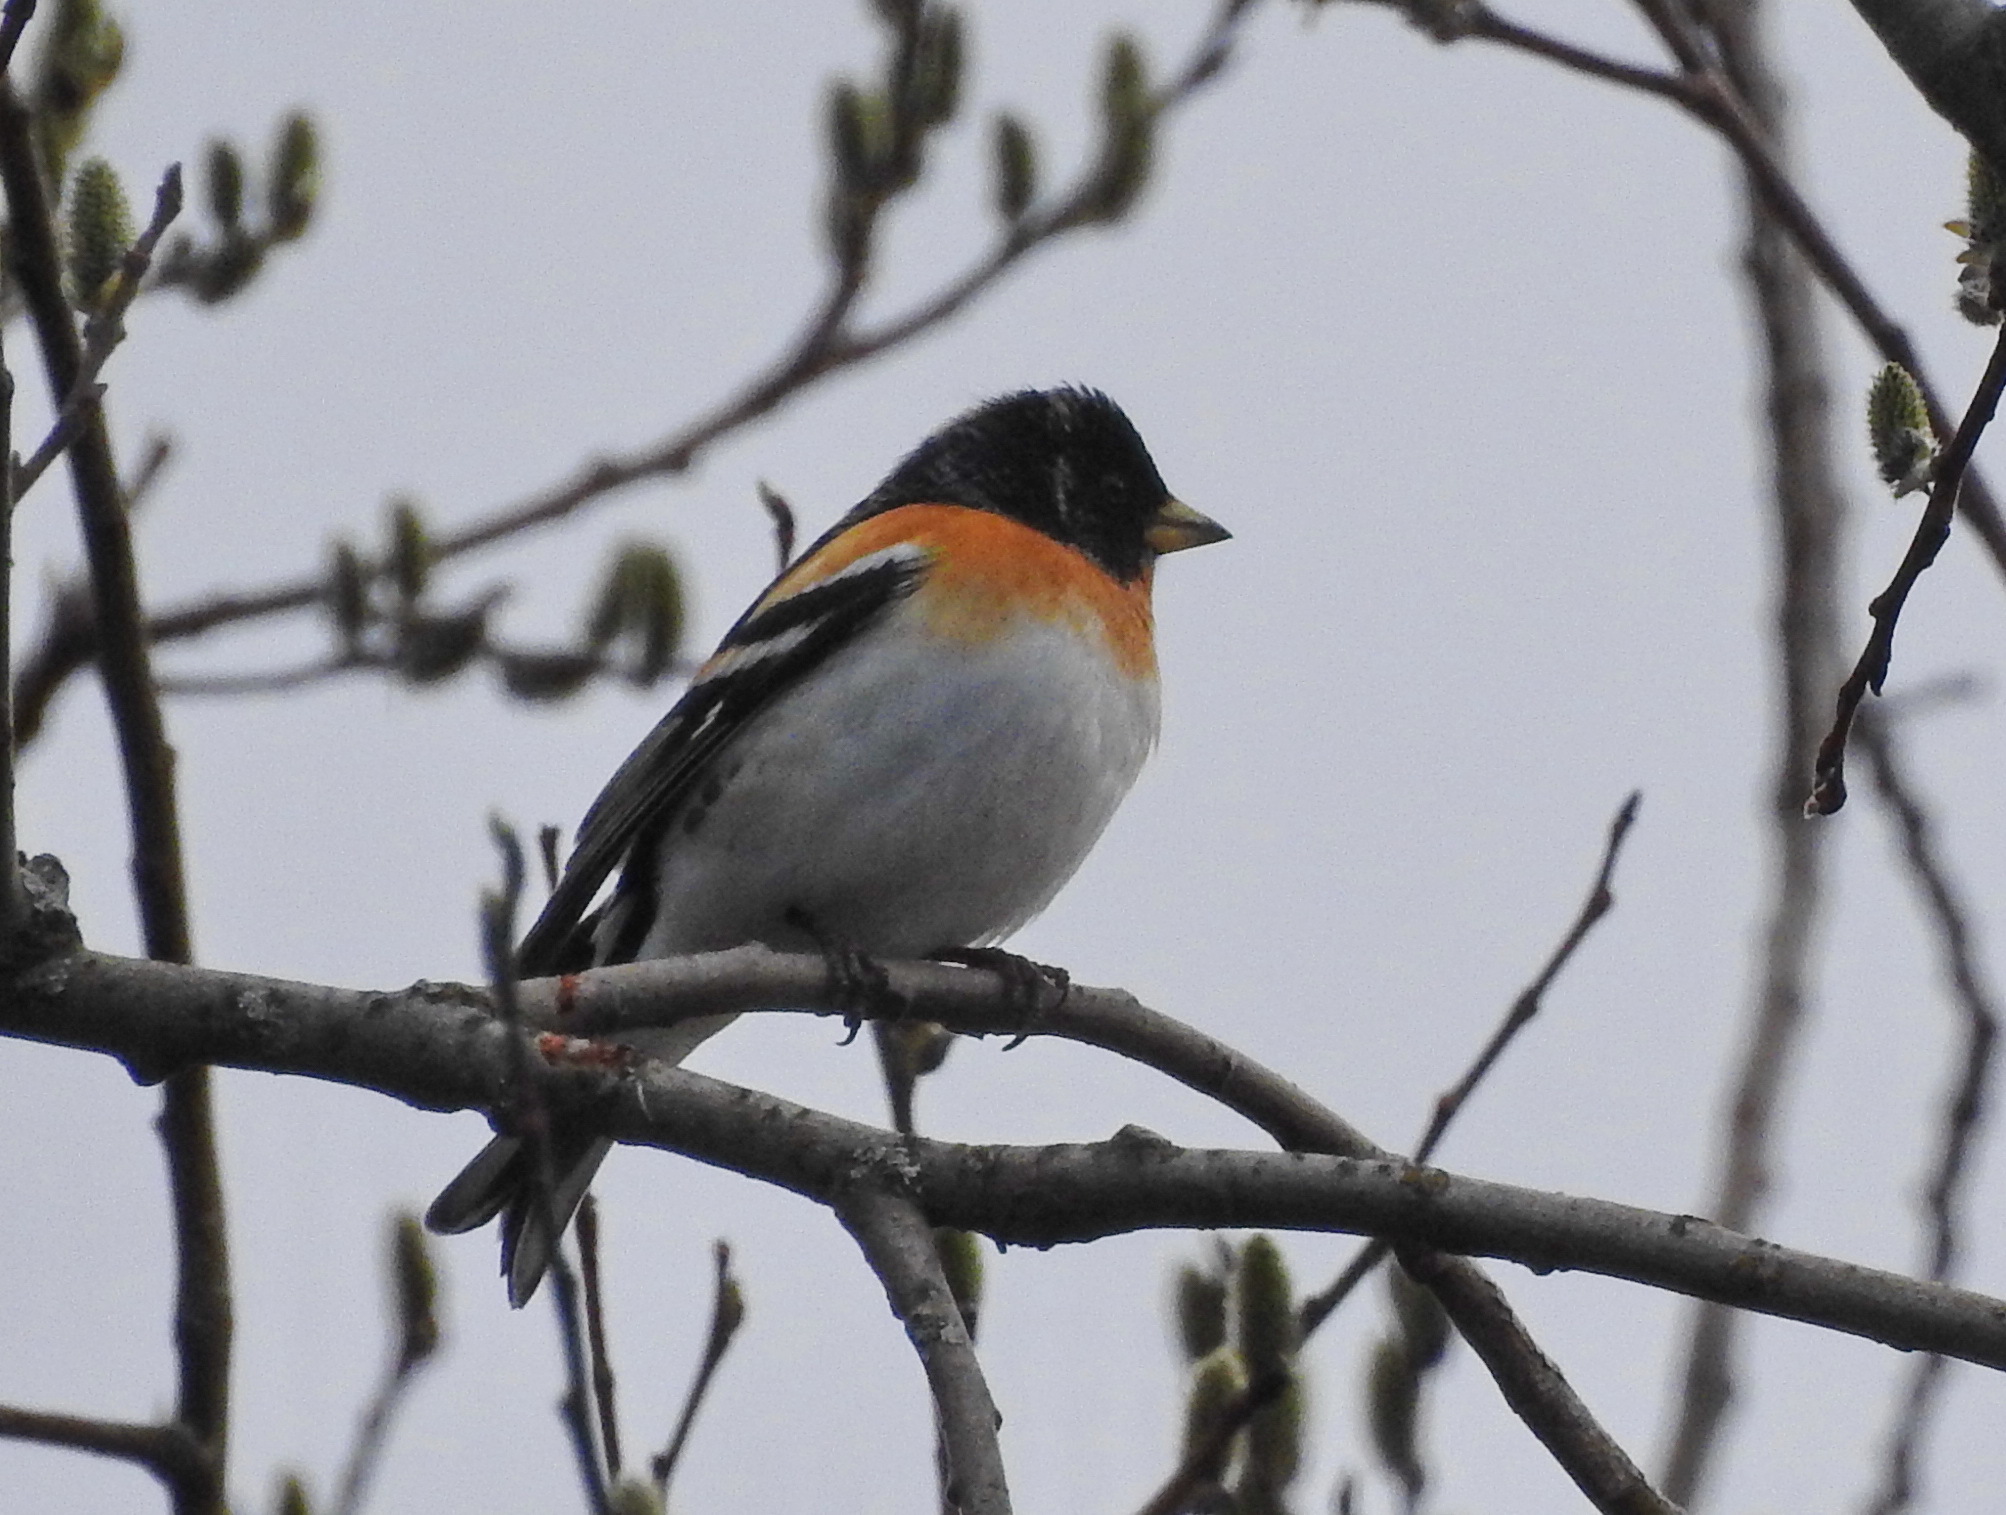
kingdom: Animalia
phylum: Chordata
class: Aves
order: Passeriformes
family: Fringillidae
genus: Fringilla
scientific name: Fringilla montifringilla
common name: Brambling
